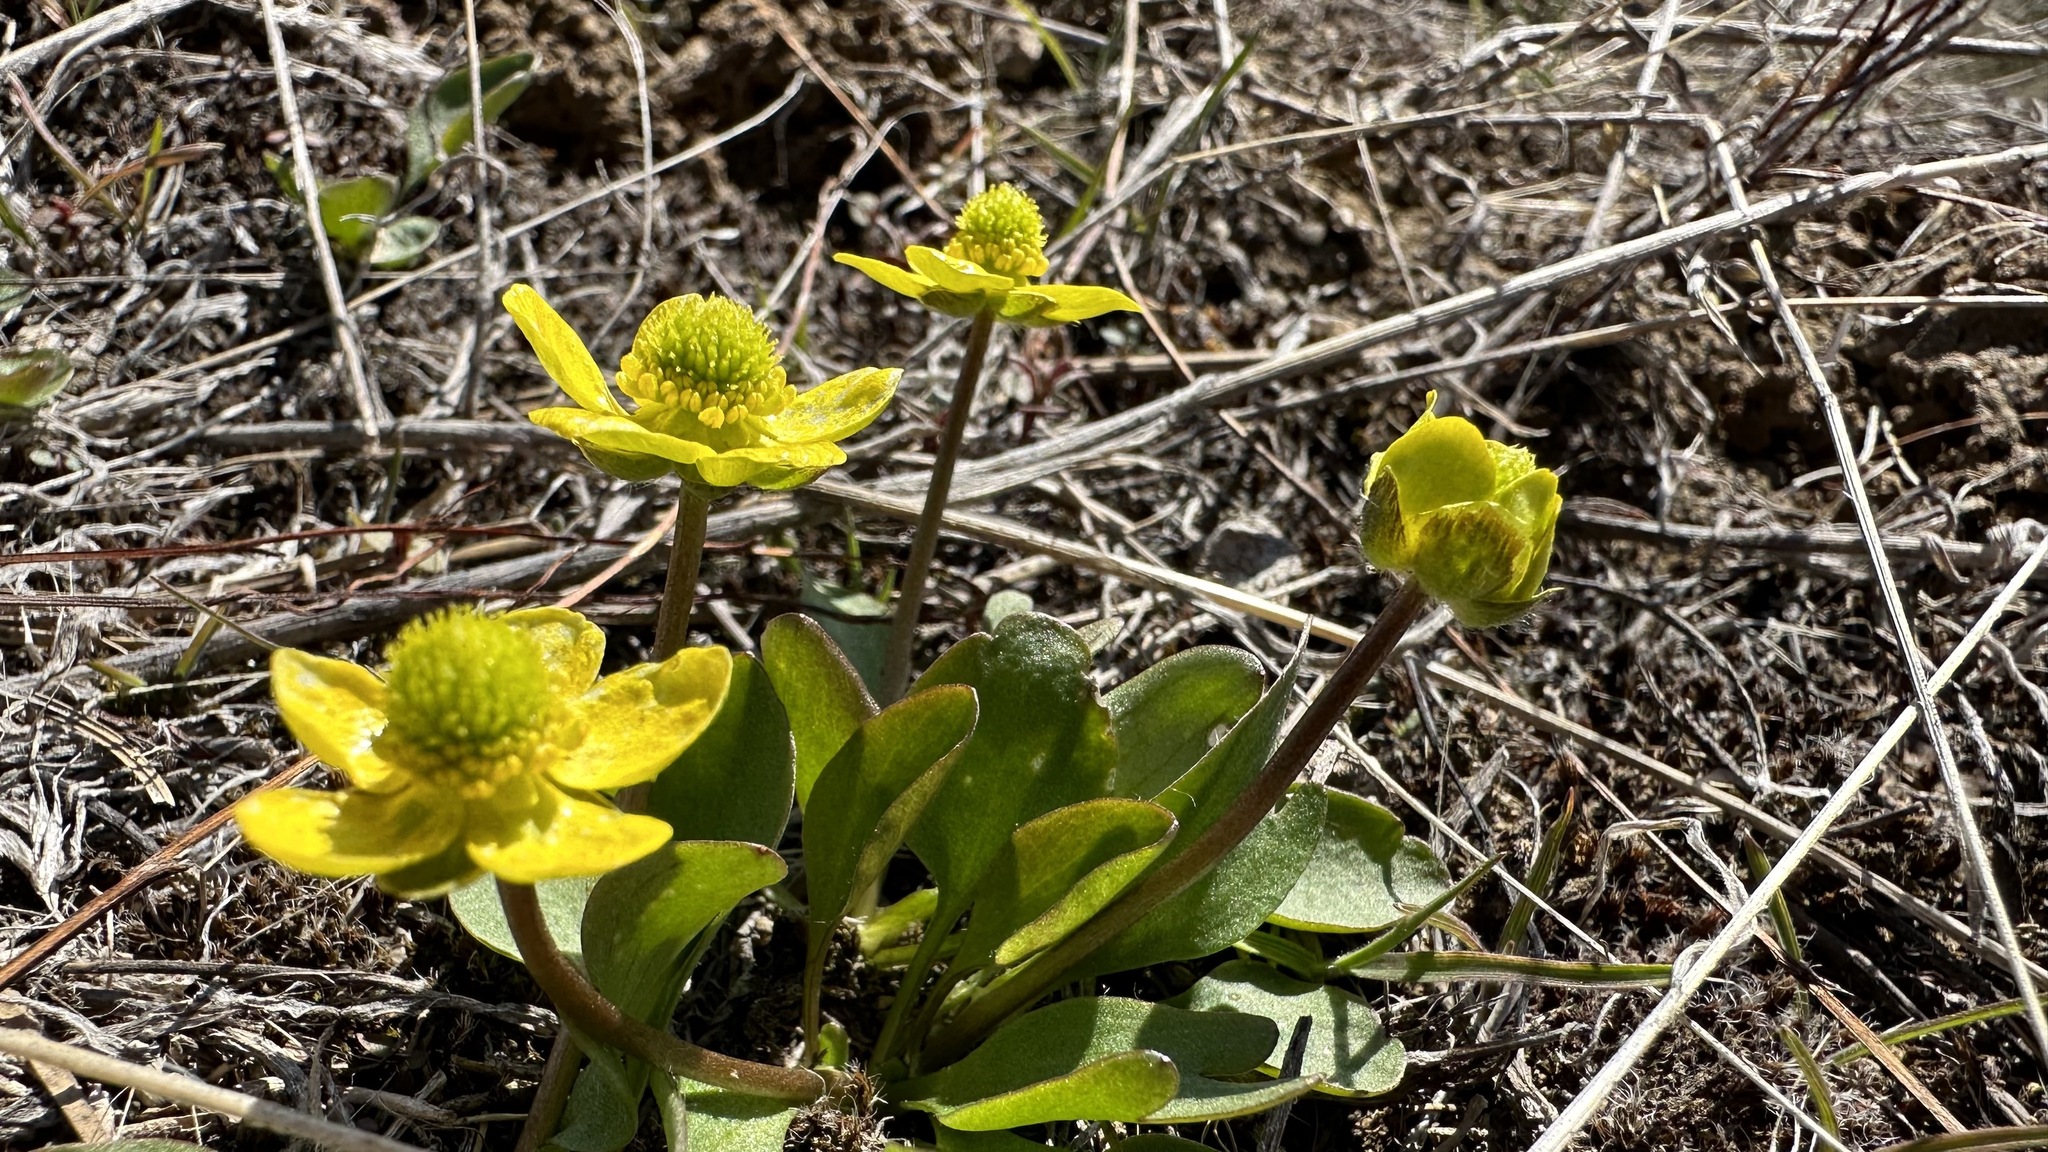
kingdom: Plantae
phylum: Tracheophyta
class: Magnoliopsida
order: Ranunculales
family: Ranunculaceae
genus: Ranunculus
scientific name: Ranunculus glaberrimus
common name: Sagebrush buttercup
